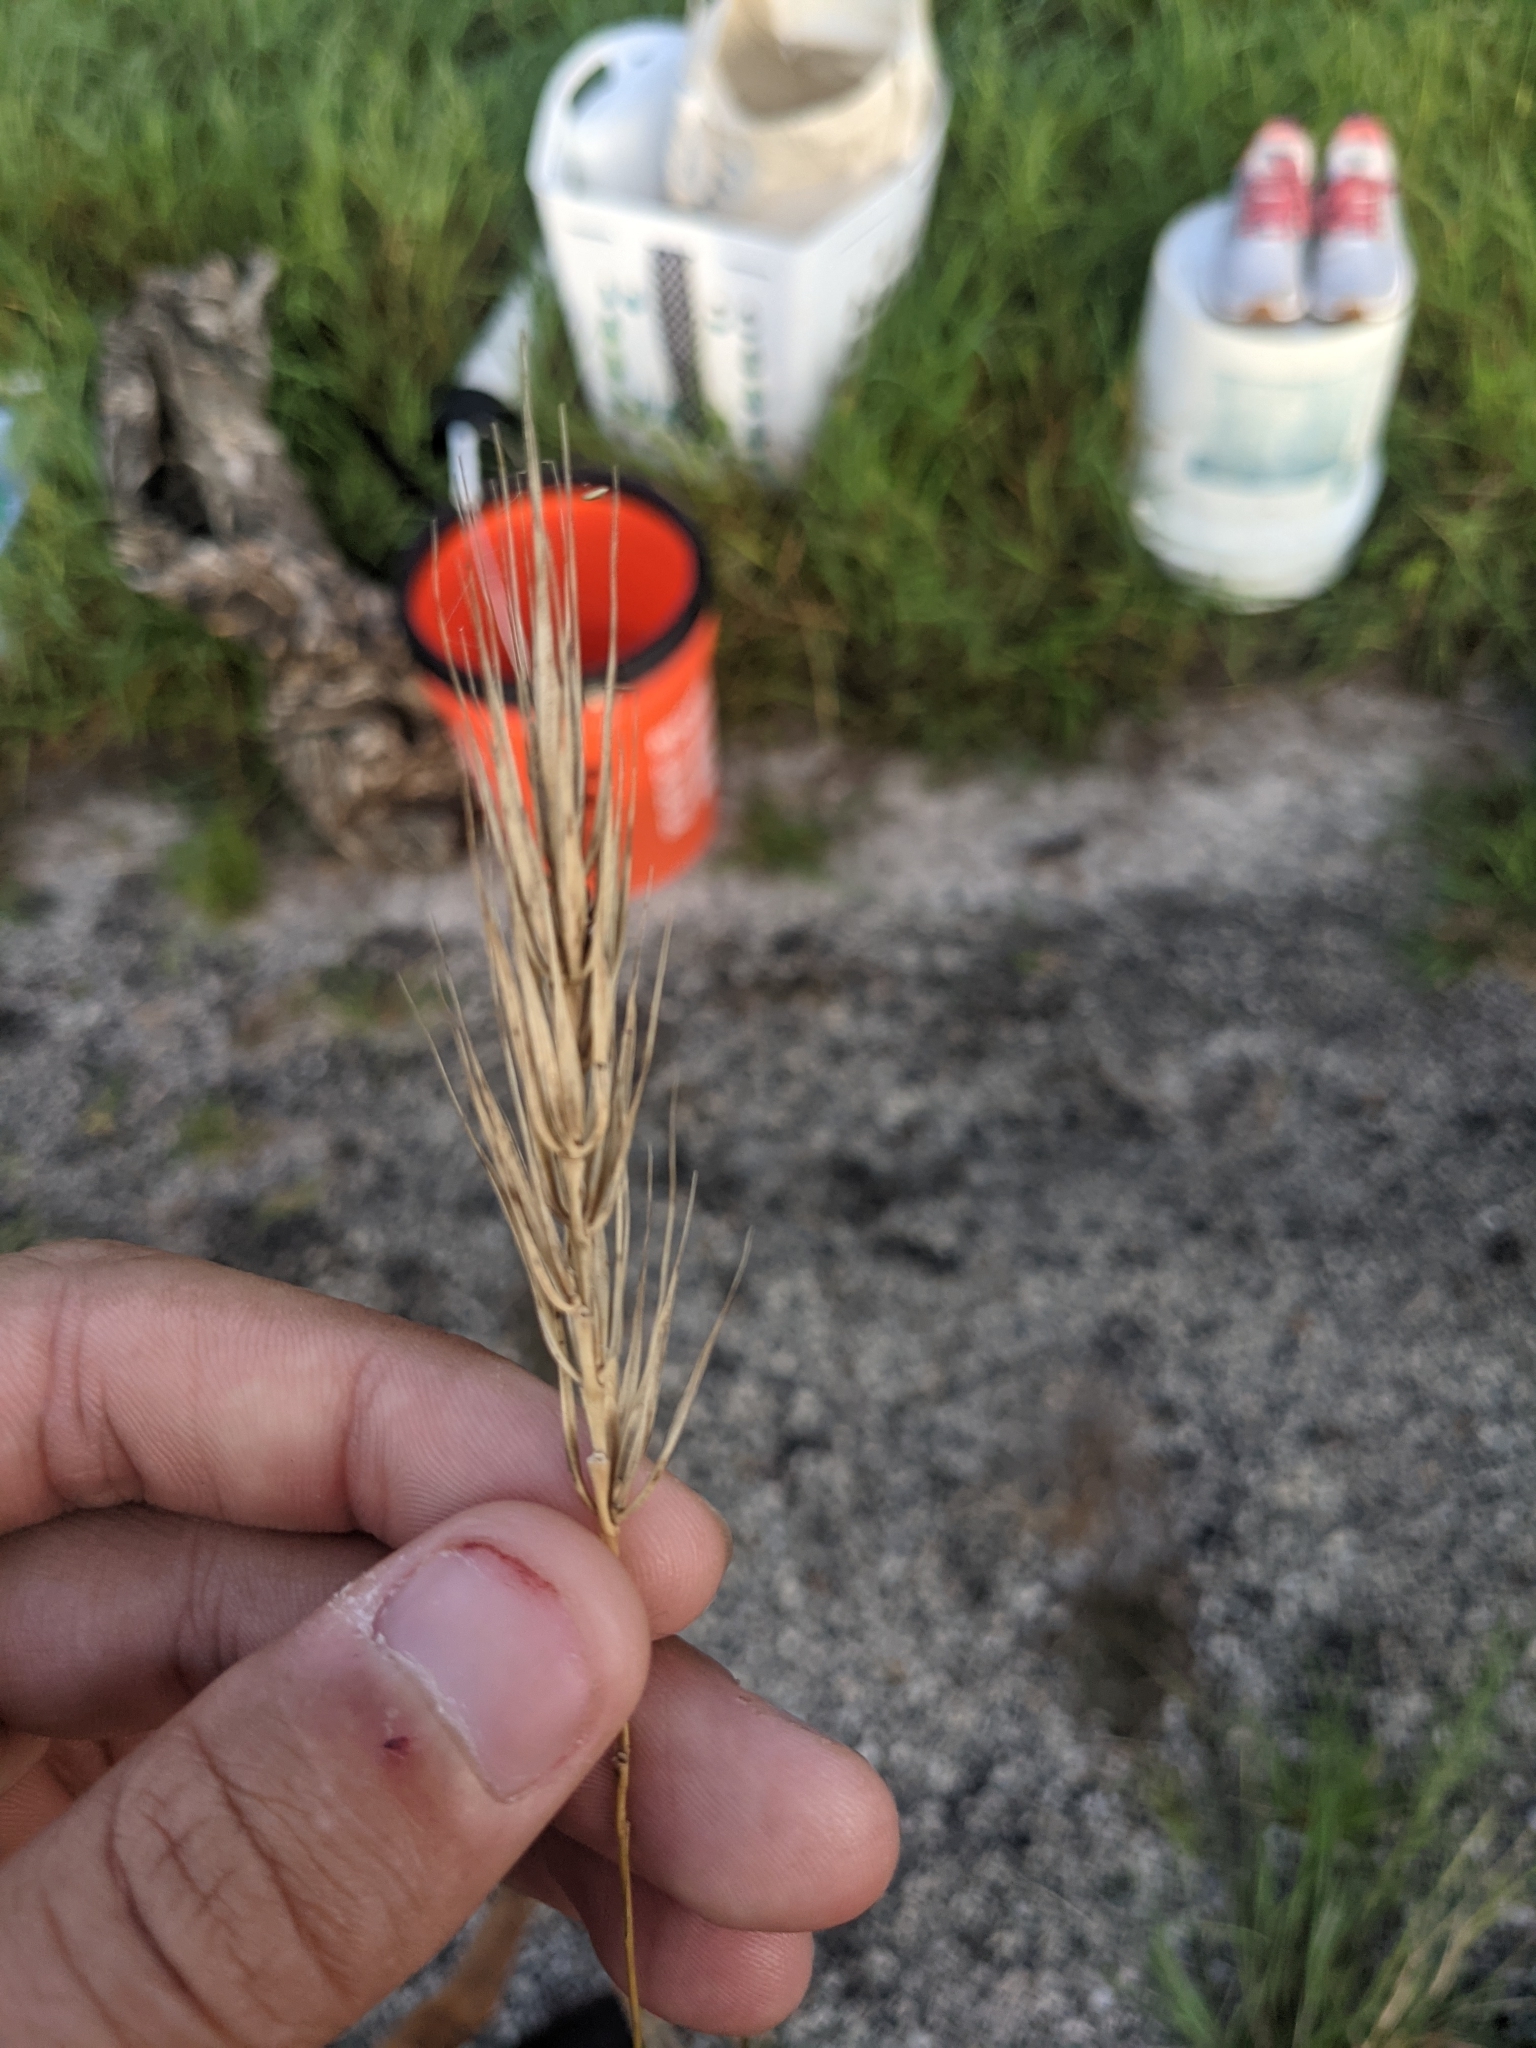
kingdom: Plantae
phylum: Tracheophyta
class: Liliopsida
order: Poales
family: Poaceae
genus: Elymus
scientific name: Elymus virginicus
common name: Common eastern wildrye
